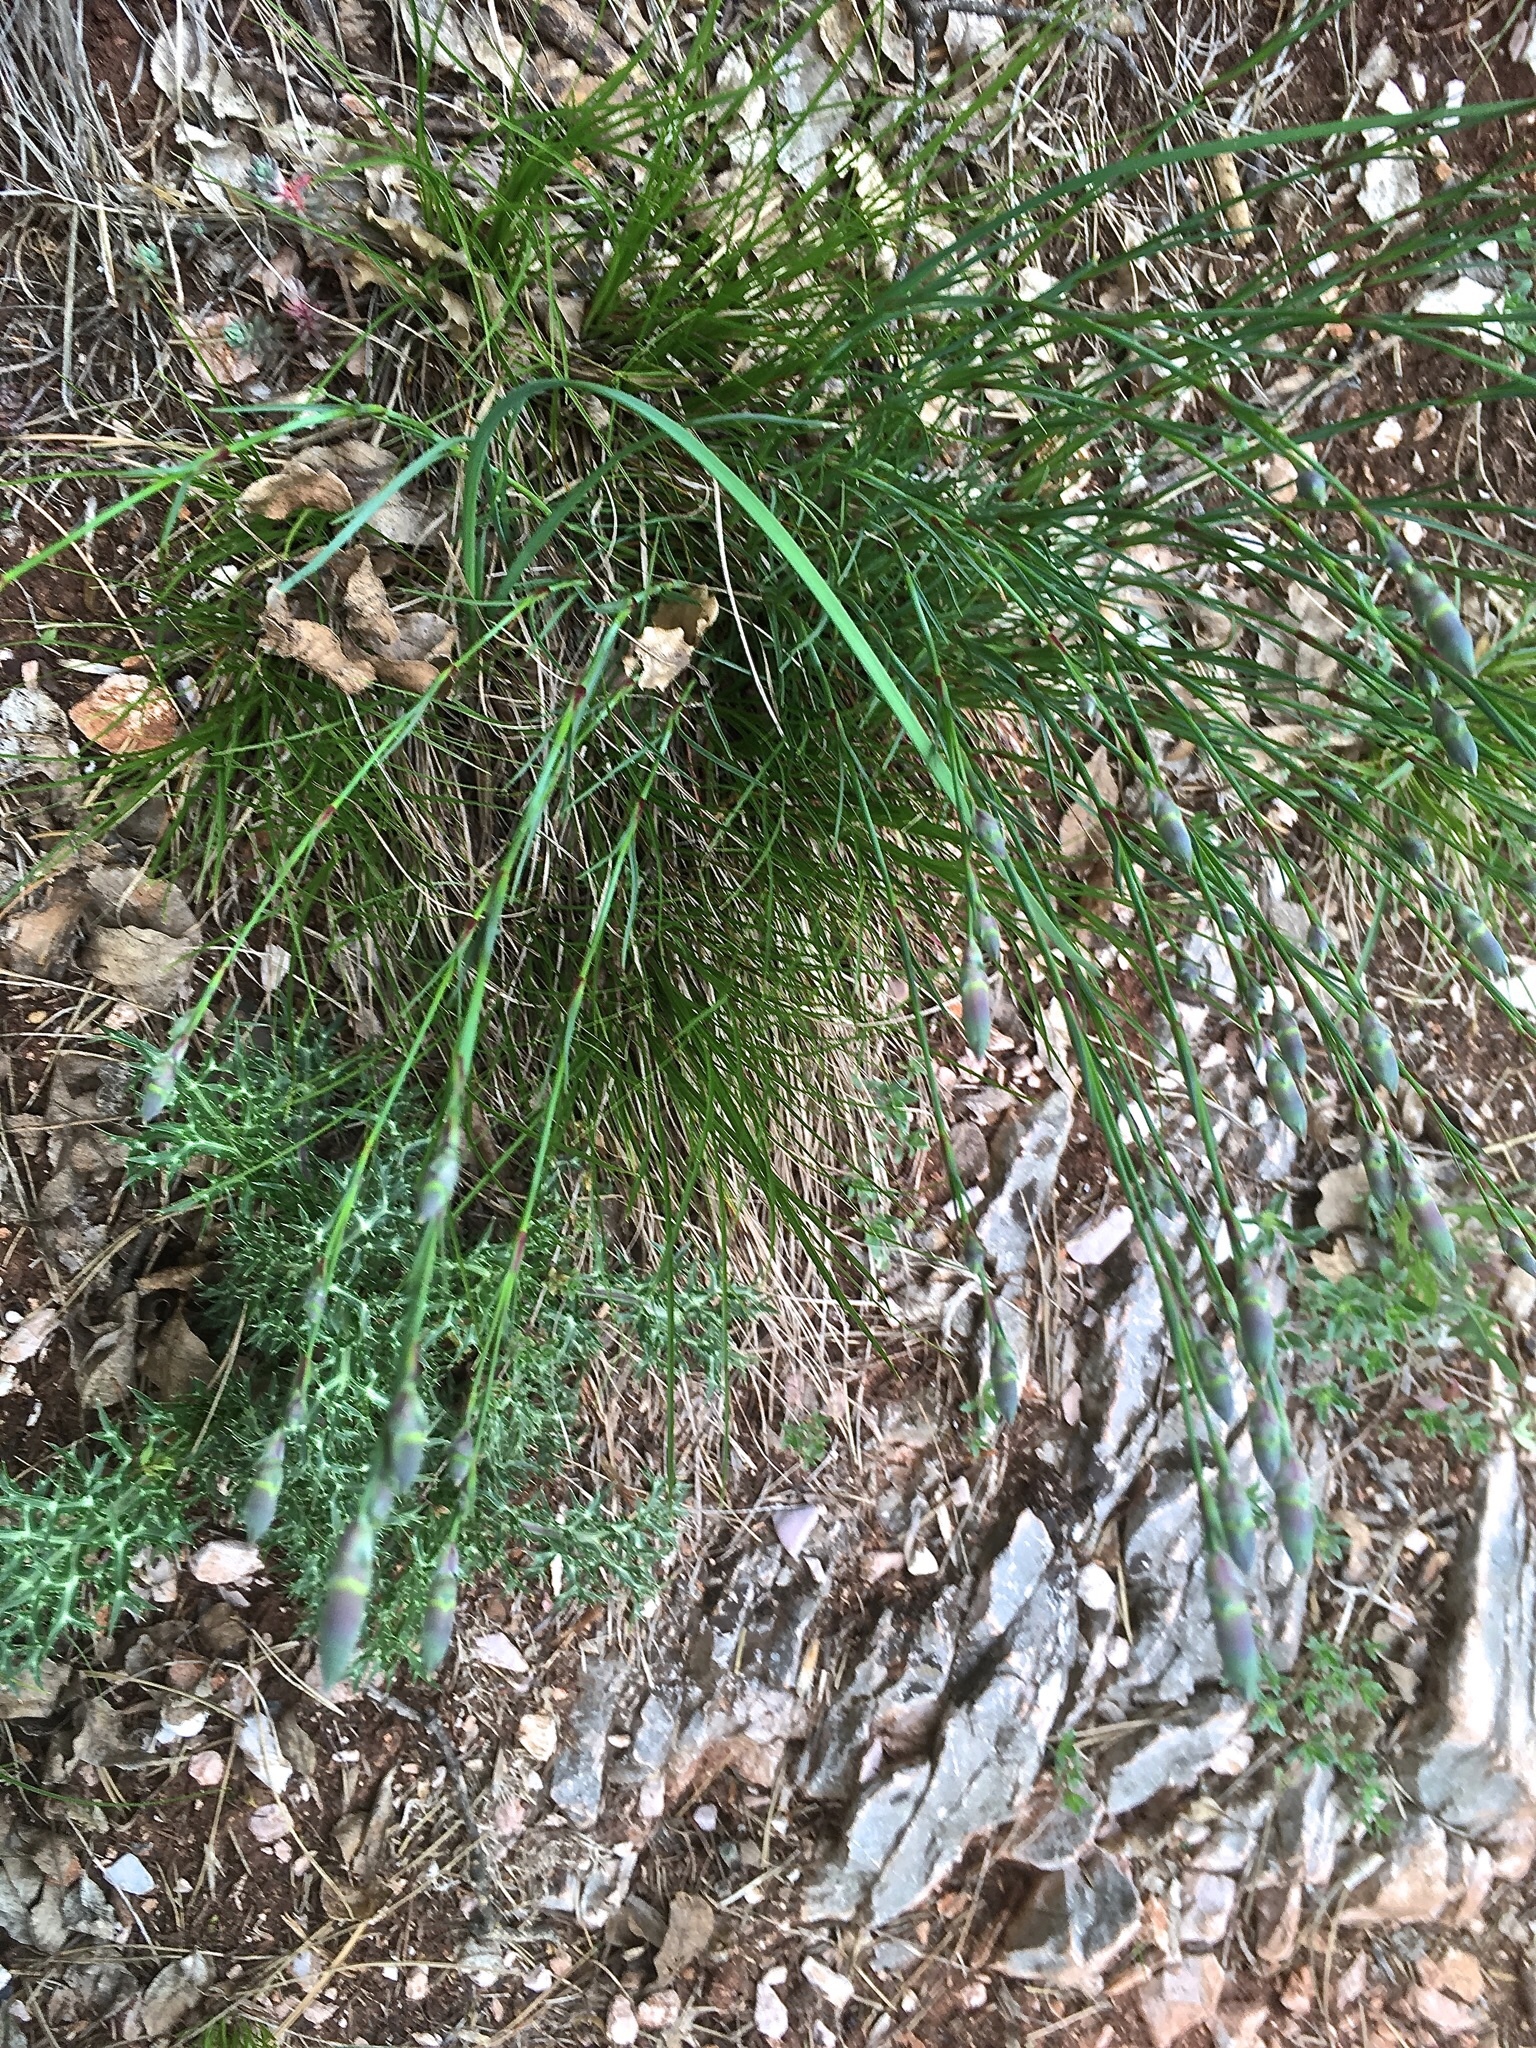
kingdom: Plantae
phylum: Tracheophyta
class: Magnoliopsida
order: Caryophyllales
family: Caryophyllaceae
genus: Dianthus
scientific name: Dianthus sylvestris
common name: Wood pink
